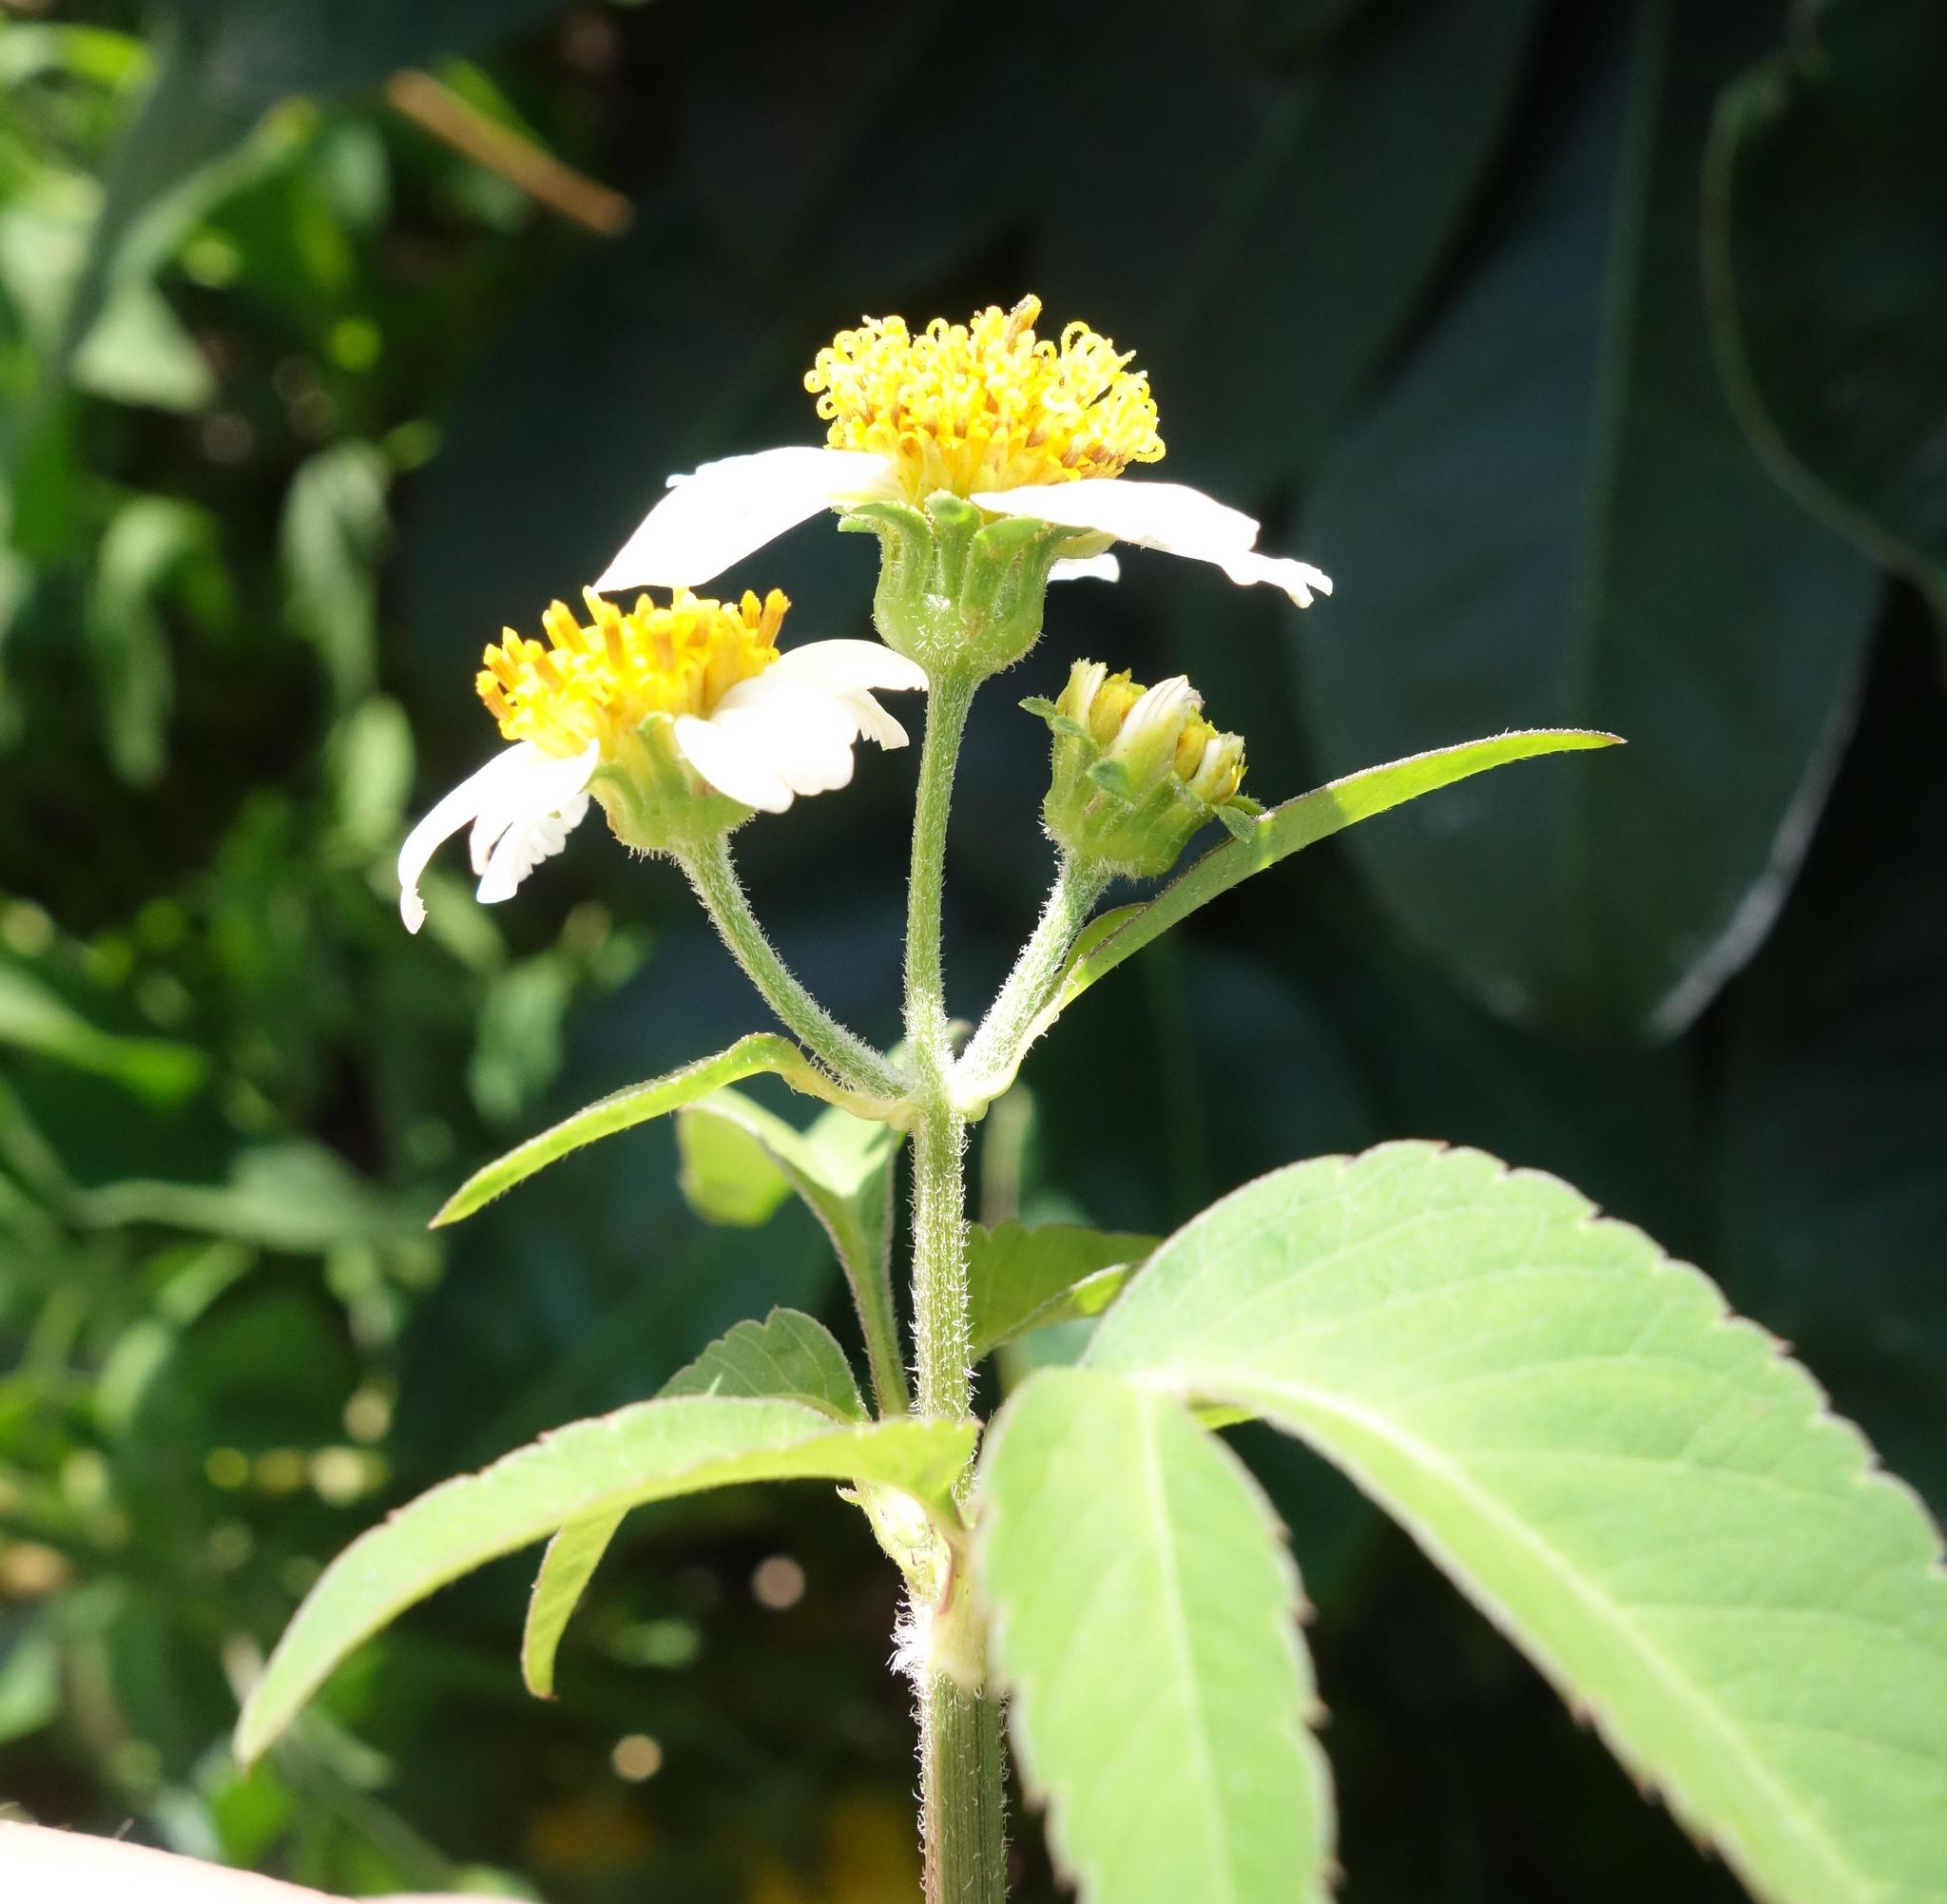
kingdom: Plantae
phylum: Tracheophyta
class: Magnoliopsida
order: Asterales
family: Asteraceae
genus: Bidens
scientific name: Bidens alba
